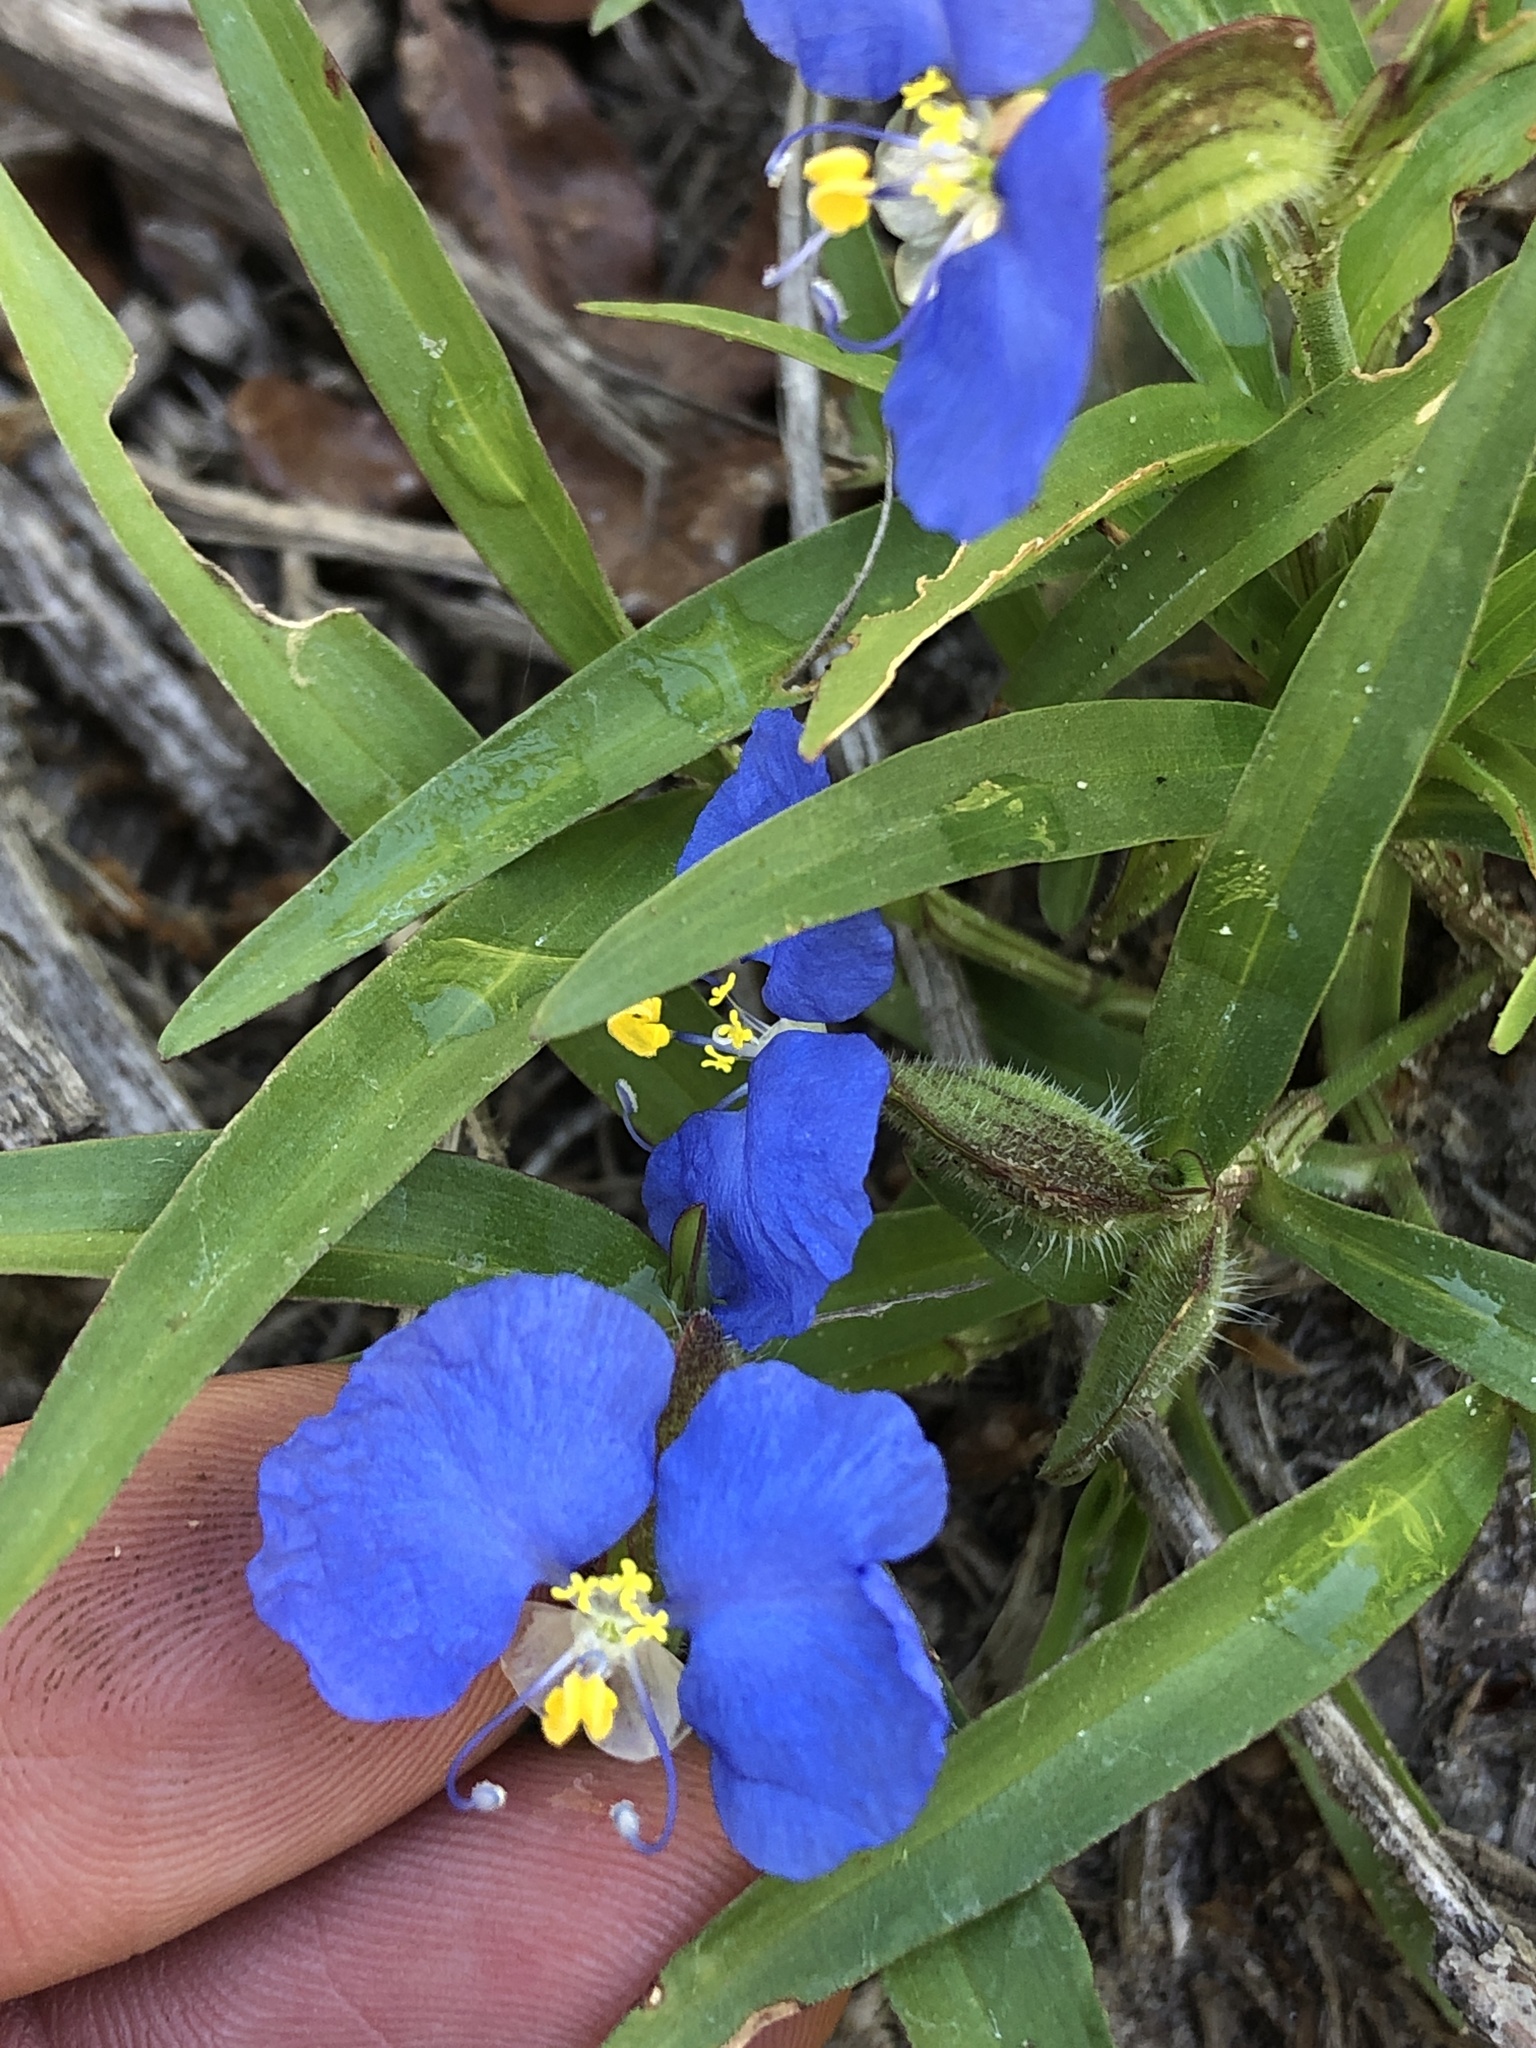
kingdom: Plantae
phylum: Tracheophyta
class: Liliopsida
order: Commelinales
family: Commelinaceae
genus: Commelina
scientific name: Commelina erecta
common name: Blousel blommetjie
